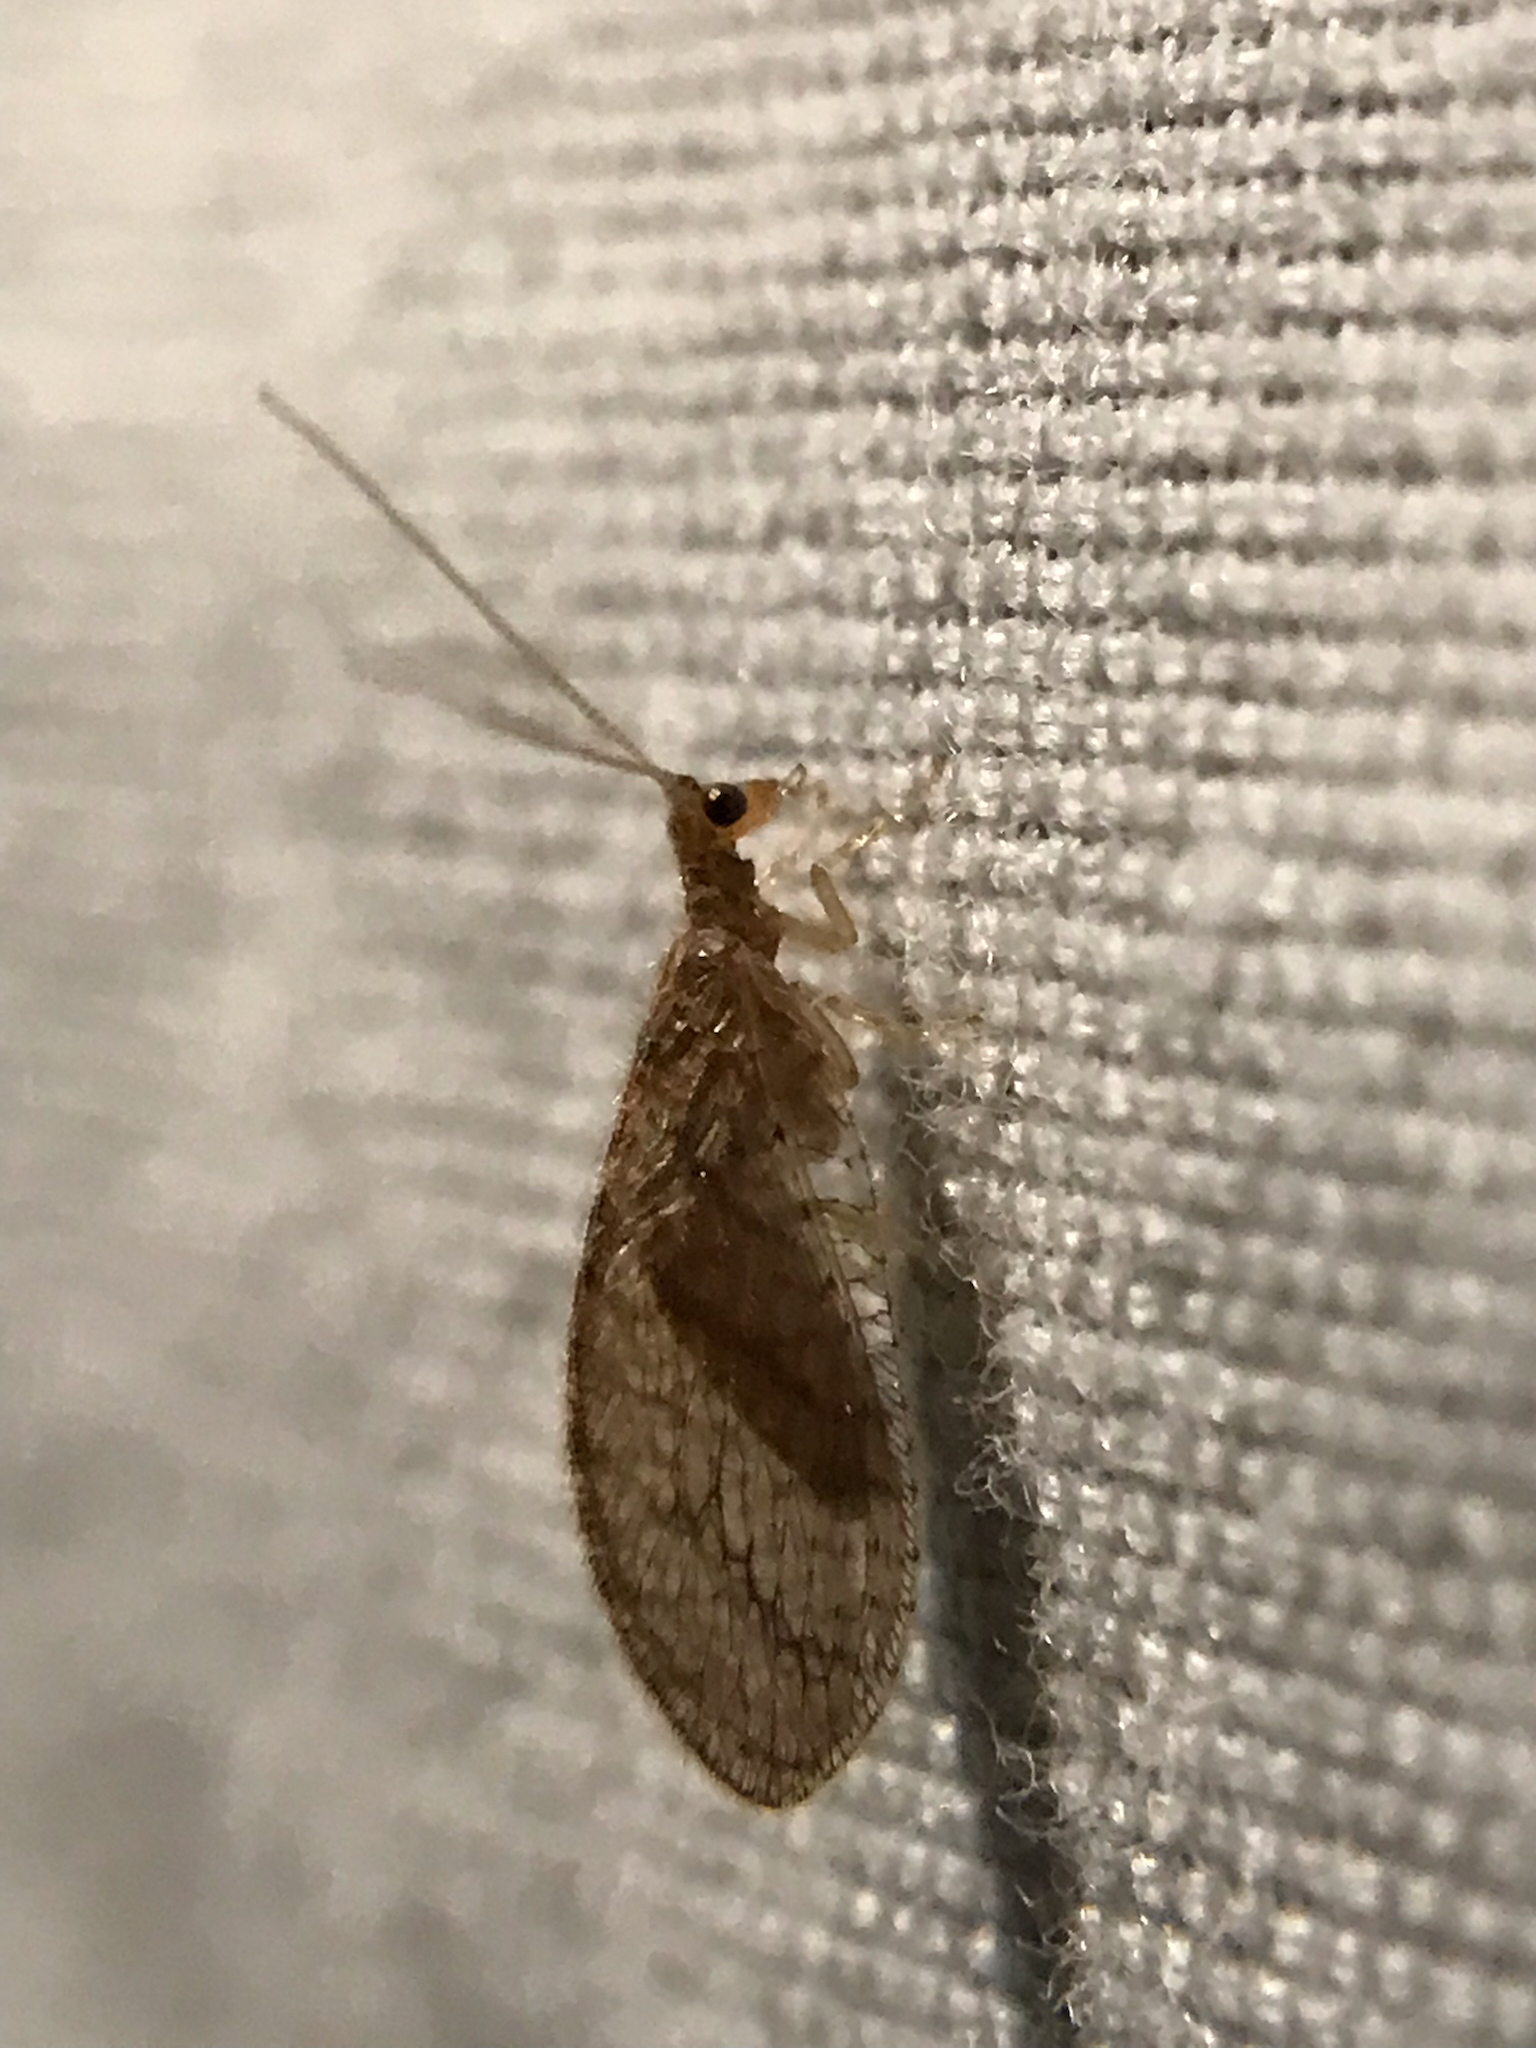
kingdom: Animalia
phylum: Arthropoda
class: Insecta
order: Neuroptera
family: Hemerobiidae
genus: Micromus
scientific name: Micromus posticus
